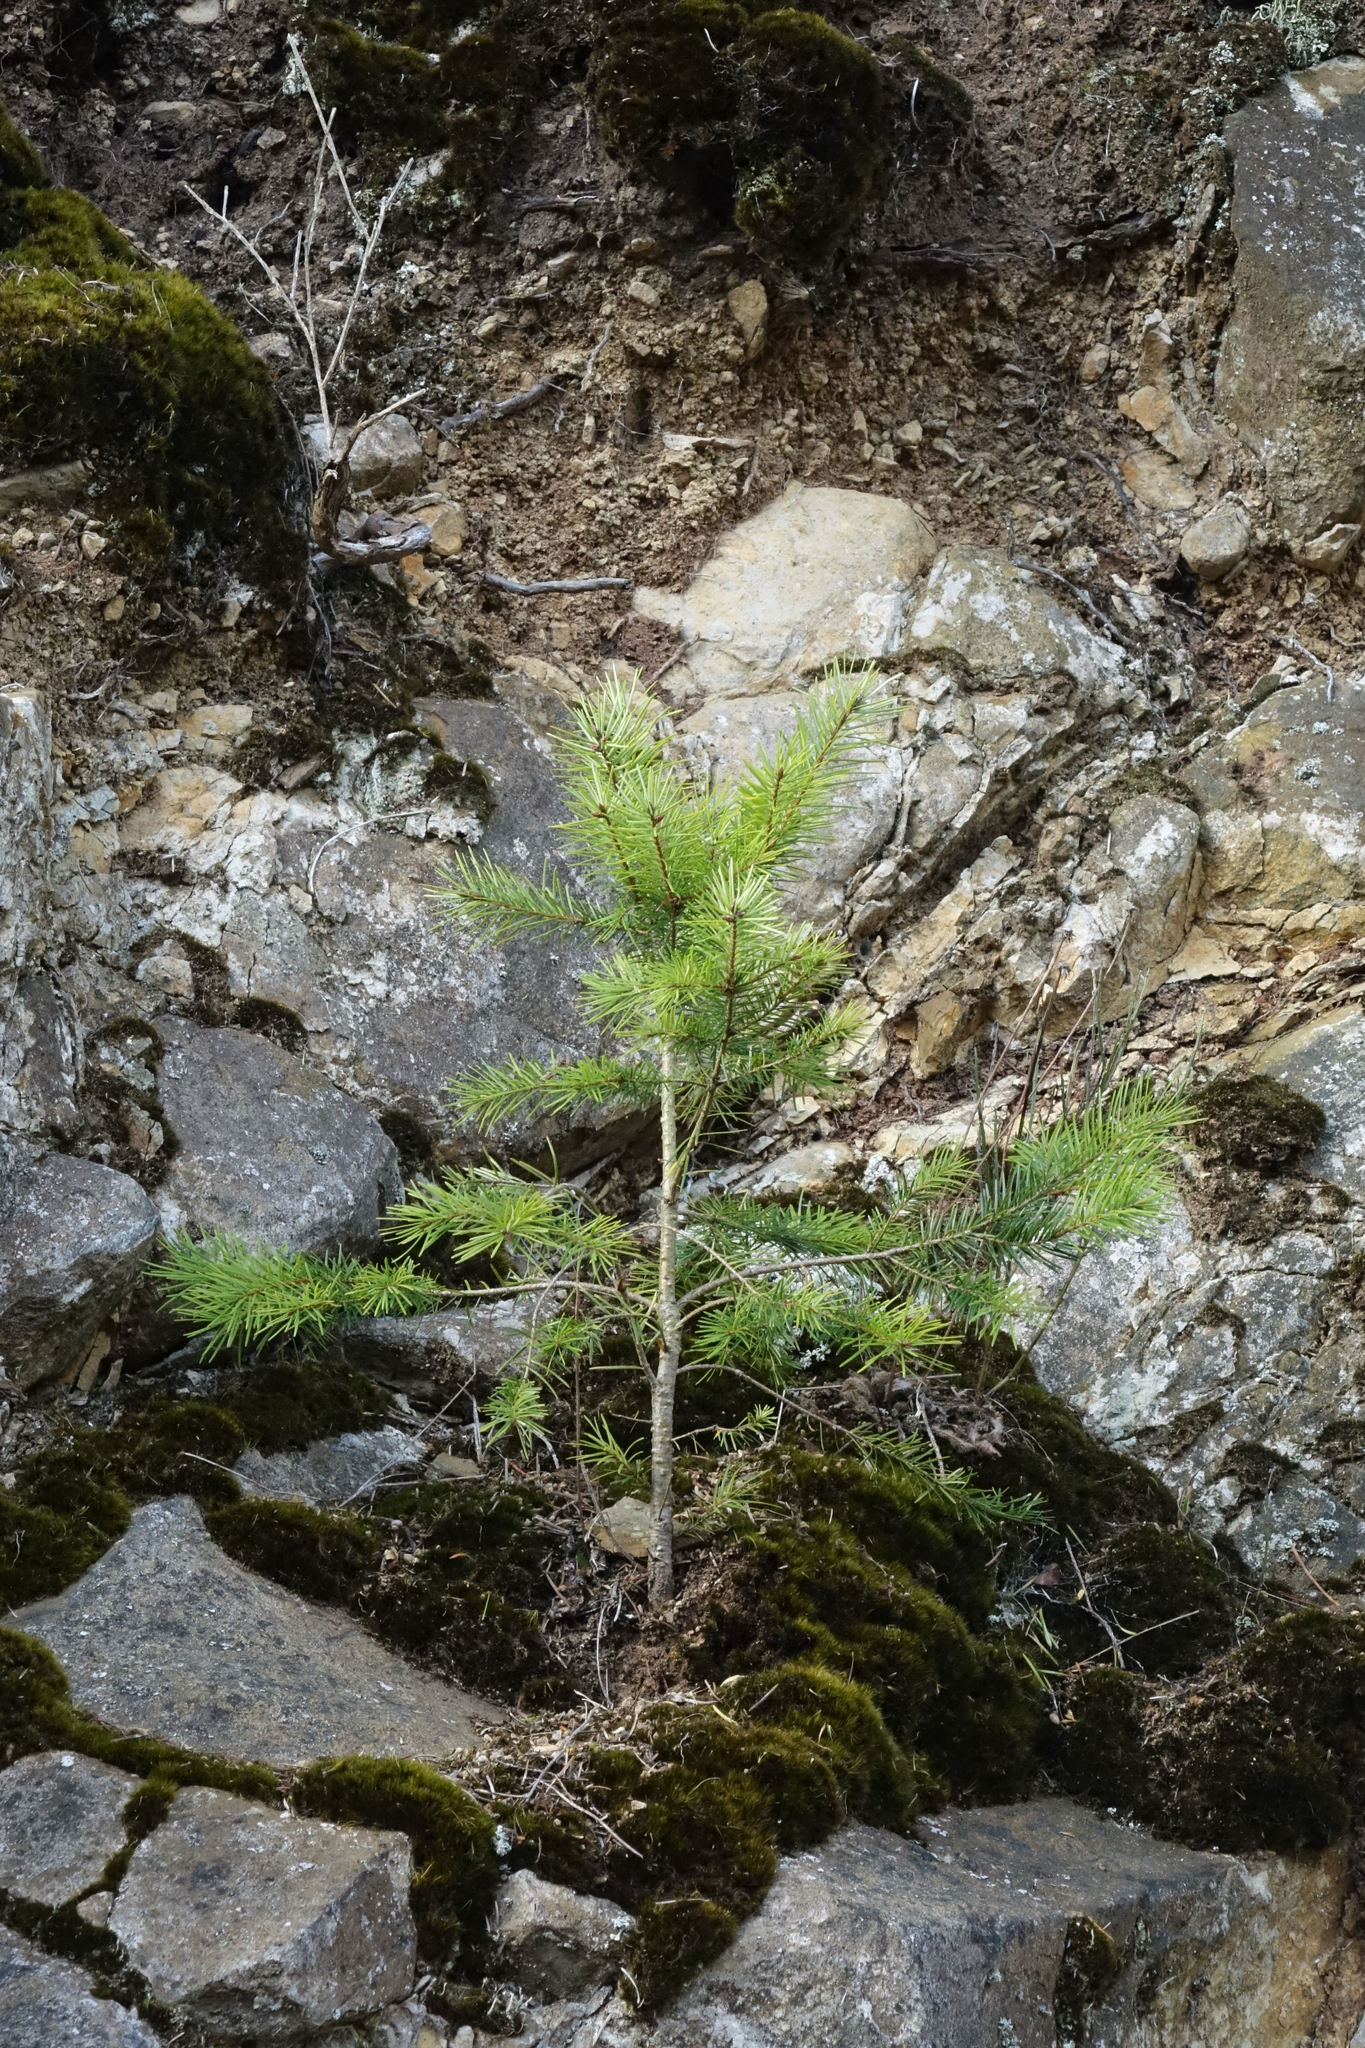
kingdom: Plantae
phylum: Tracheophyta
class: Pinopsida
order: Pinales
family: Pinaceae
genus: Pseudotsuga
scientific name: Pseudotsuga menziesii
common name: Douglas fir
